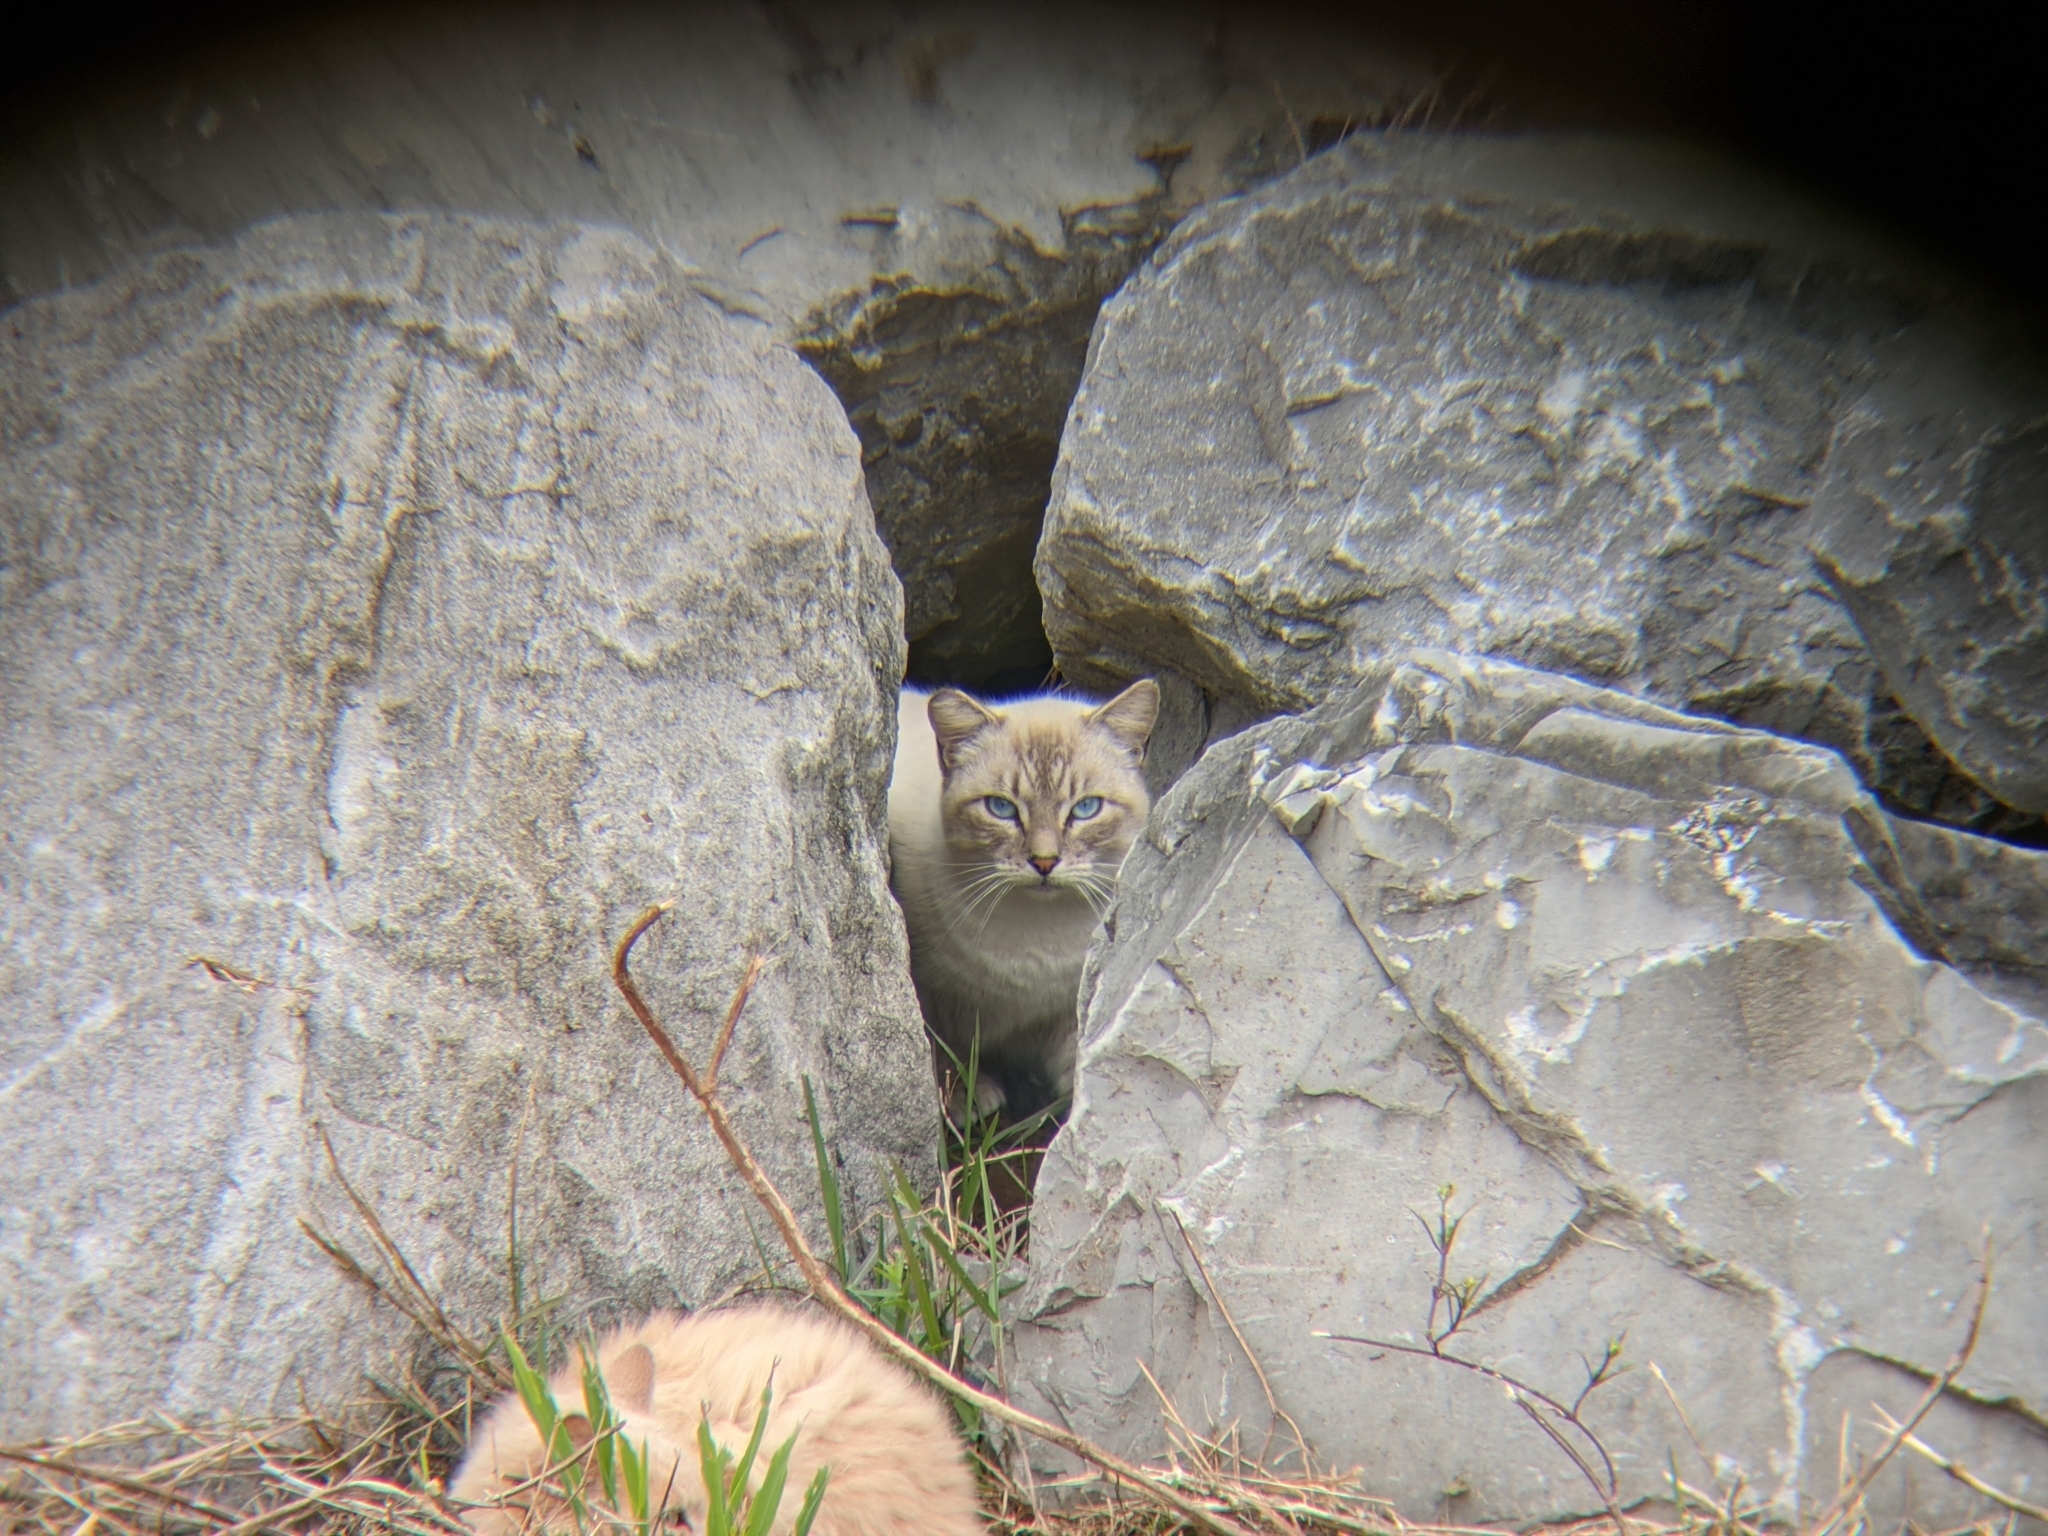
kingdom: Animalia
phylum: Chordata
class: Mammalia
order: Carnivora
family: Felidae
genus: Felis
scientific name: Felis catus
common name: Domestic cat
